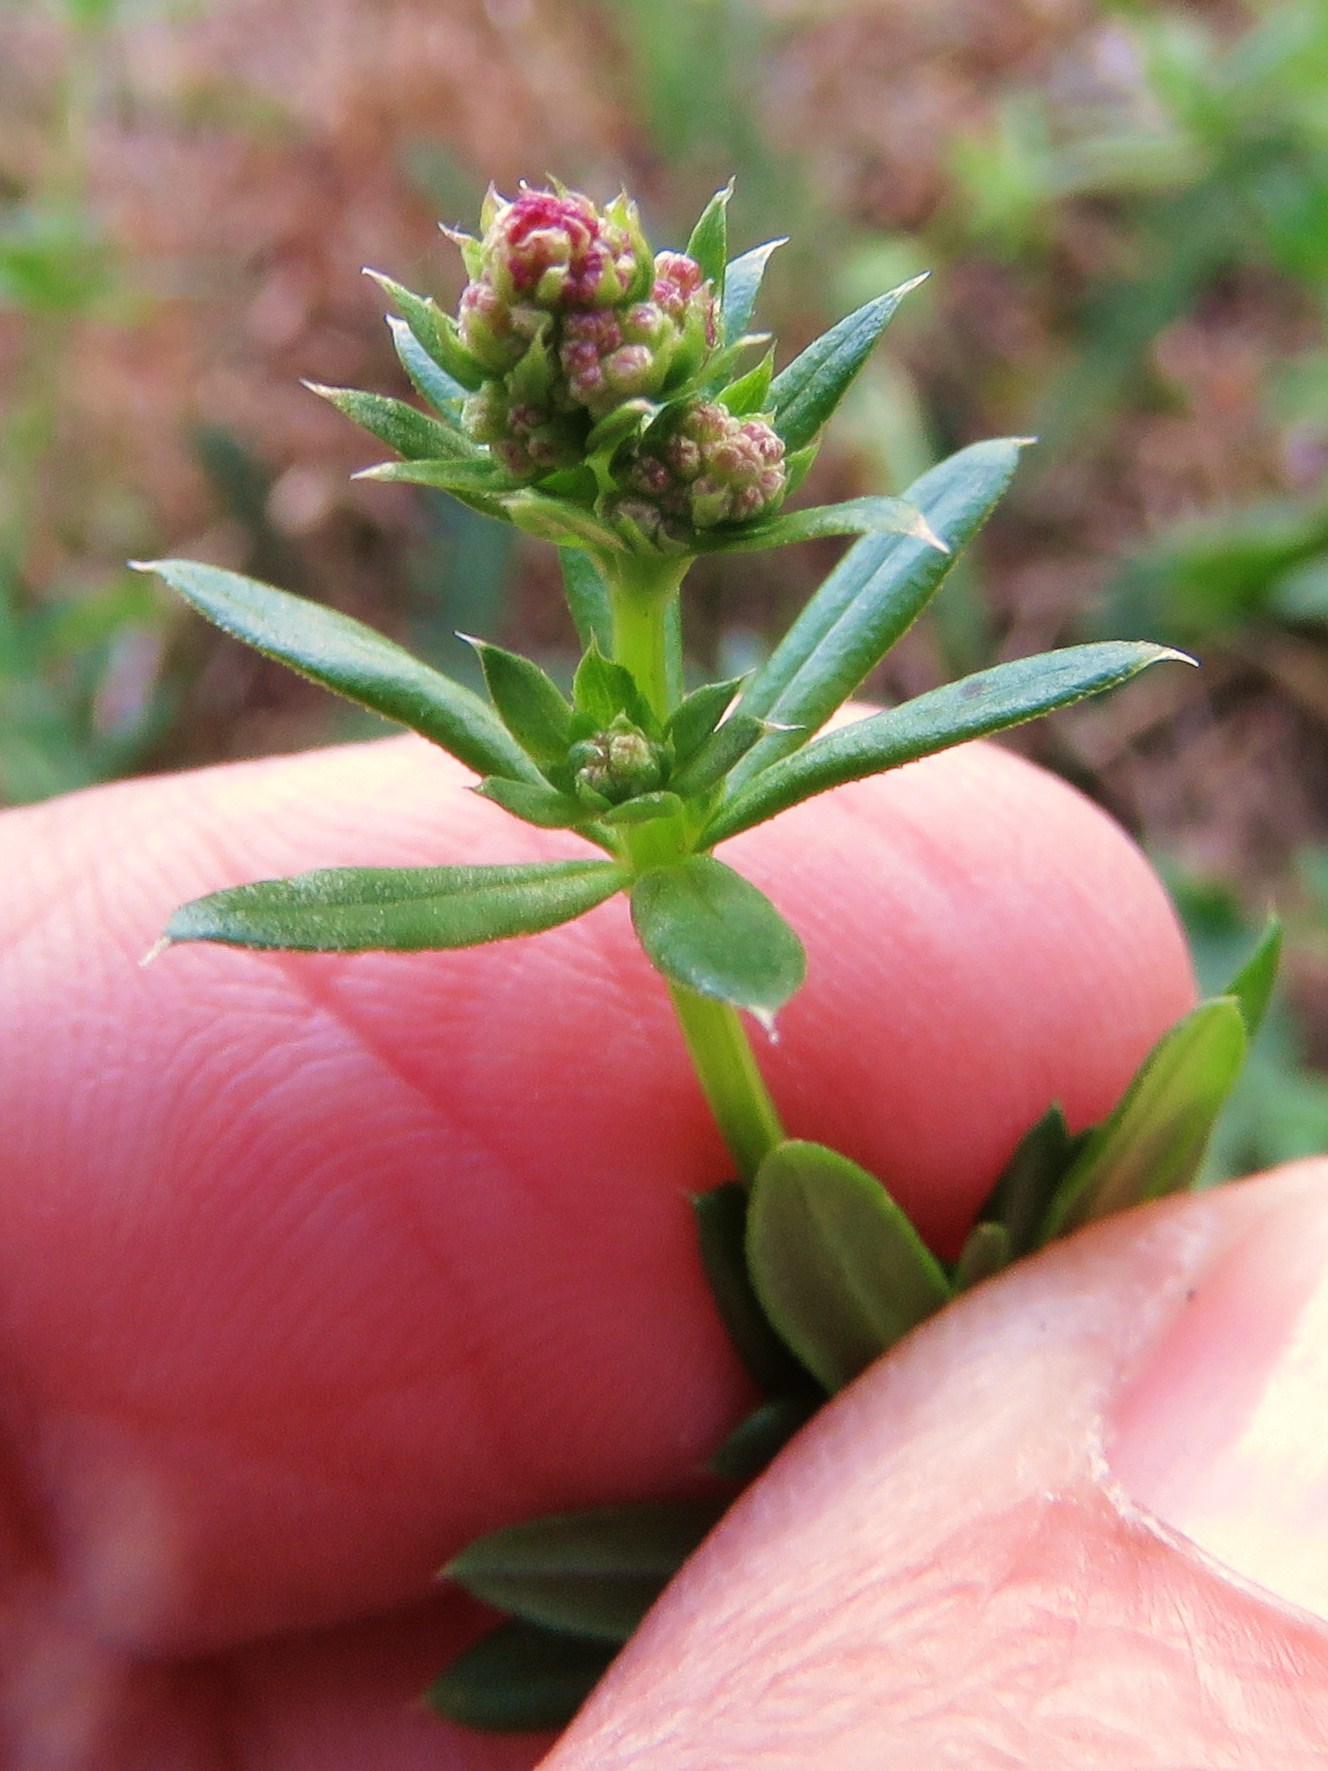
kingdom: Plantae
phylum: Tracheophyta
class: Magnoliopsida
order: Gentianales
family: Rubiaceae
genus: Galium
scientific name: Galium album
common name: White bedstraw
